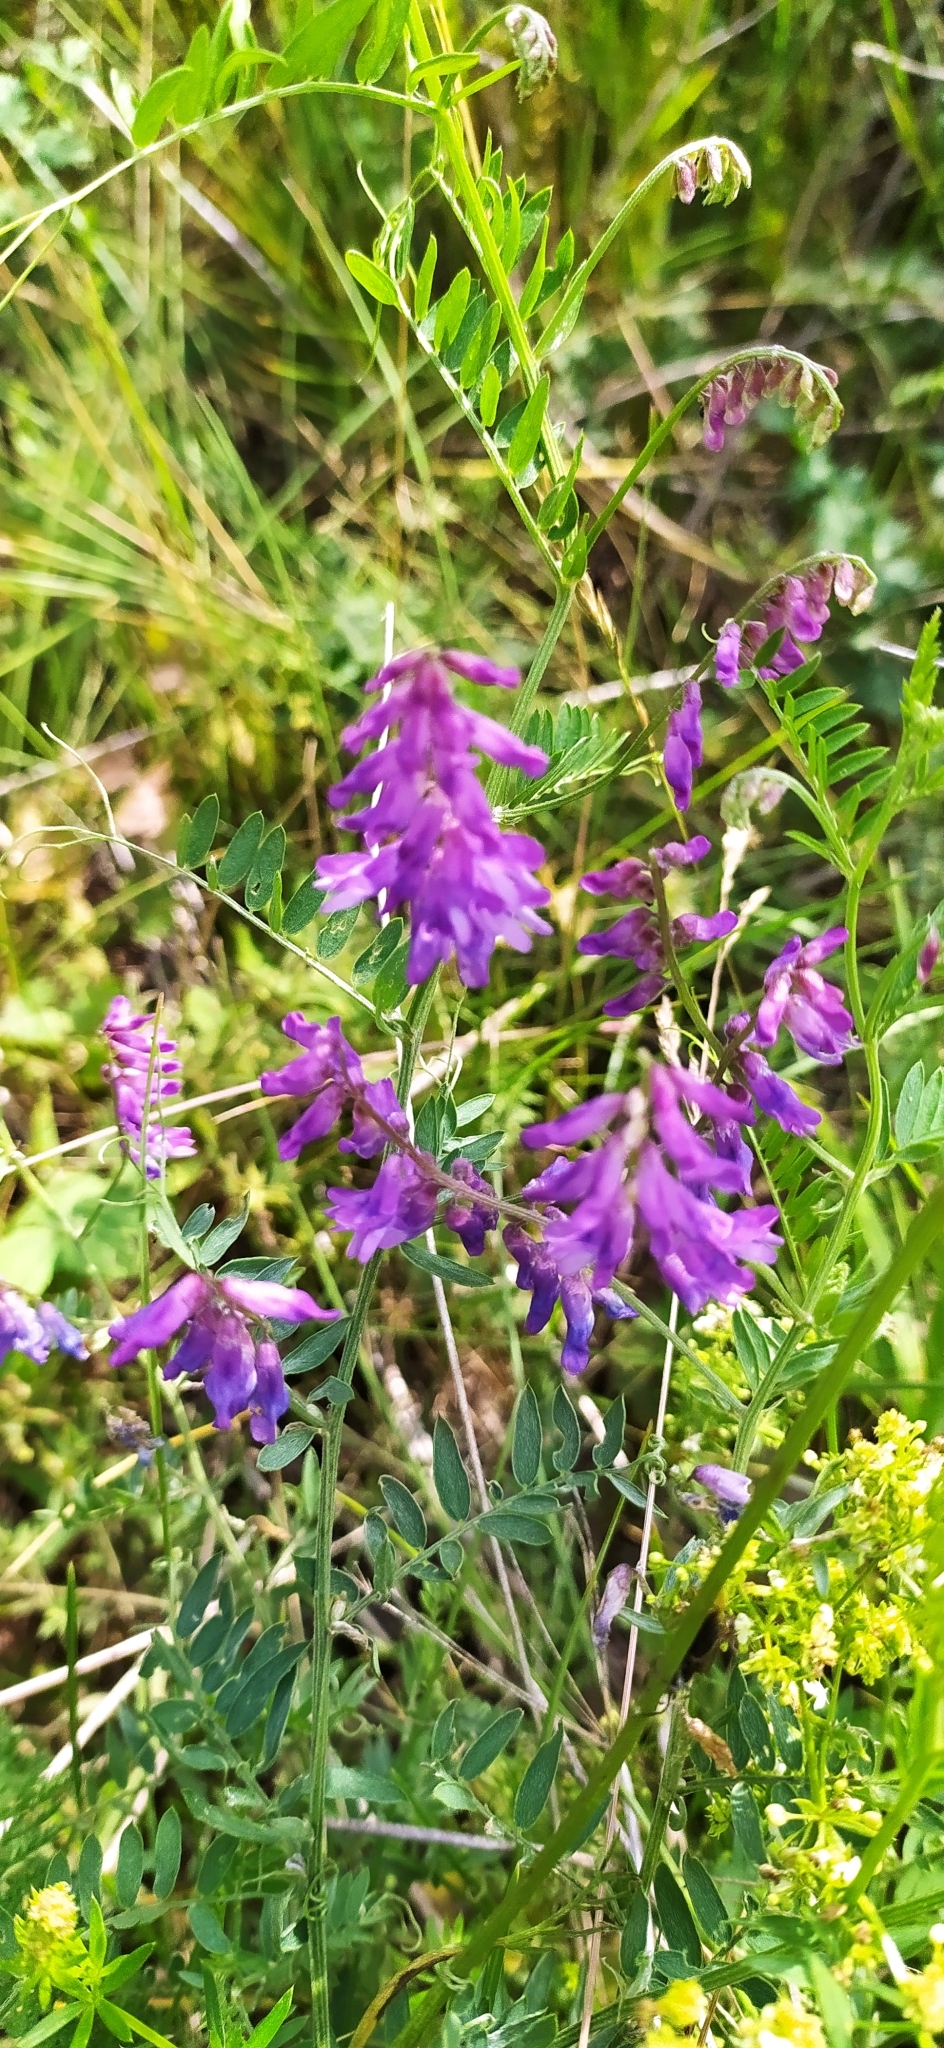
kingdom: Plantae
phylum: Tracheophyta
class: Magnoliopsida
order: Fabales
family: Fabaceae
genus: Vicia
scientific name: Vicia cracca
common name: Bird vetch
